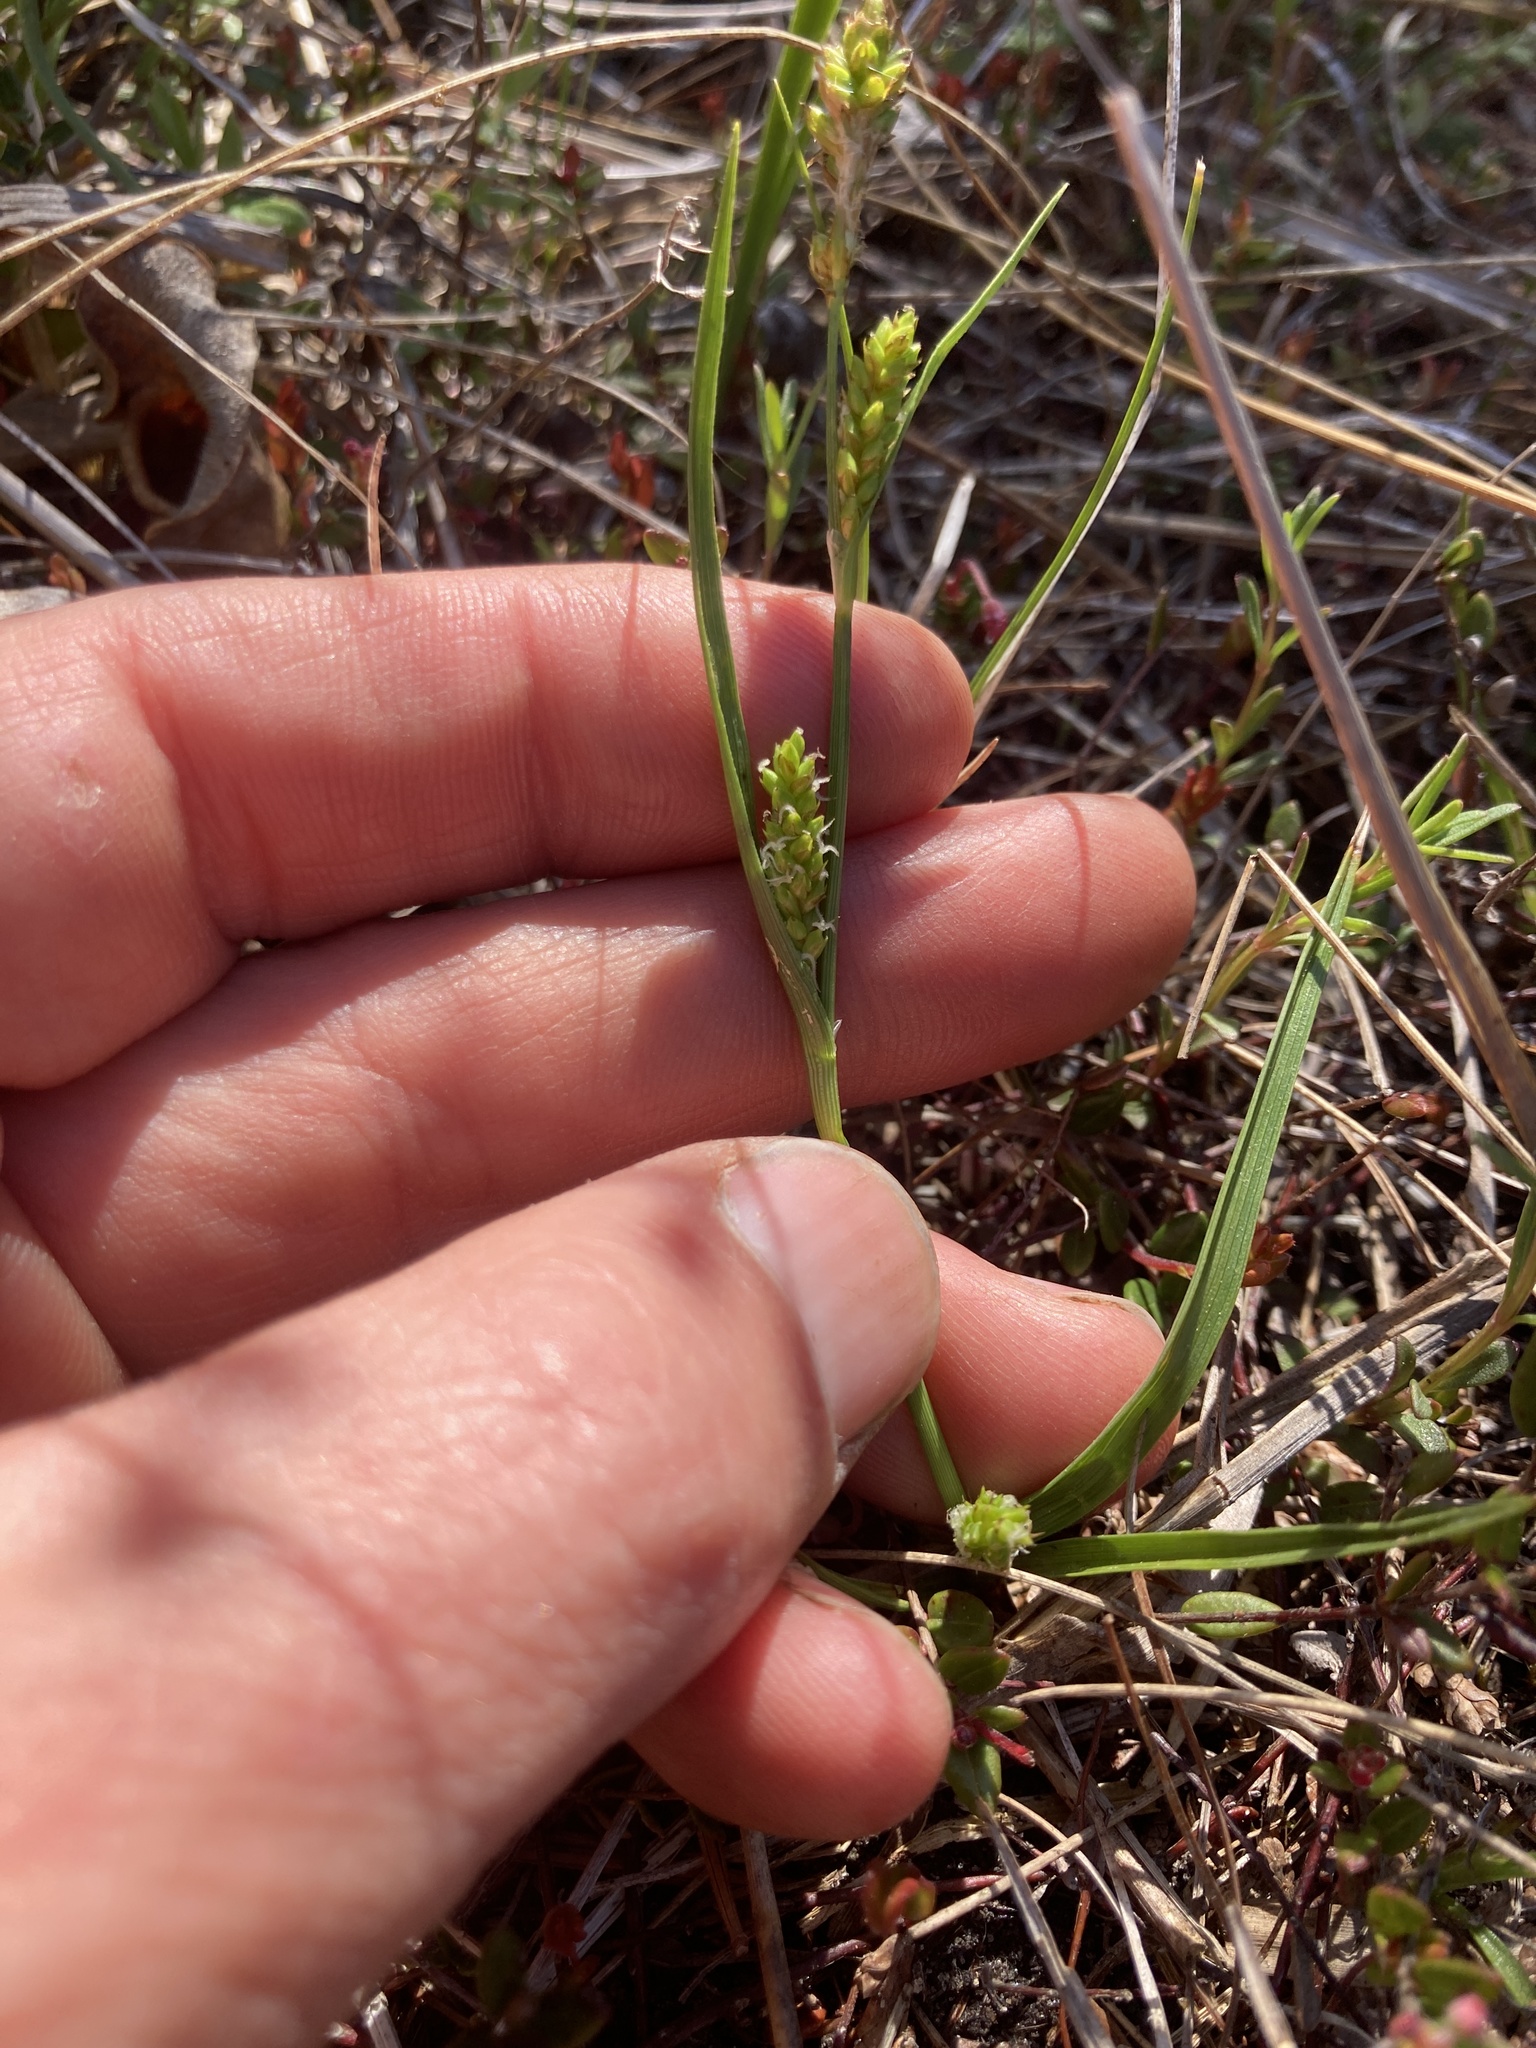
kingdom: Plantae
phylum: Tracheophyta
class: Liliopsida
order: Poales
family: Cyperaceae
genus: Carex
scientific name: Carex crawei
